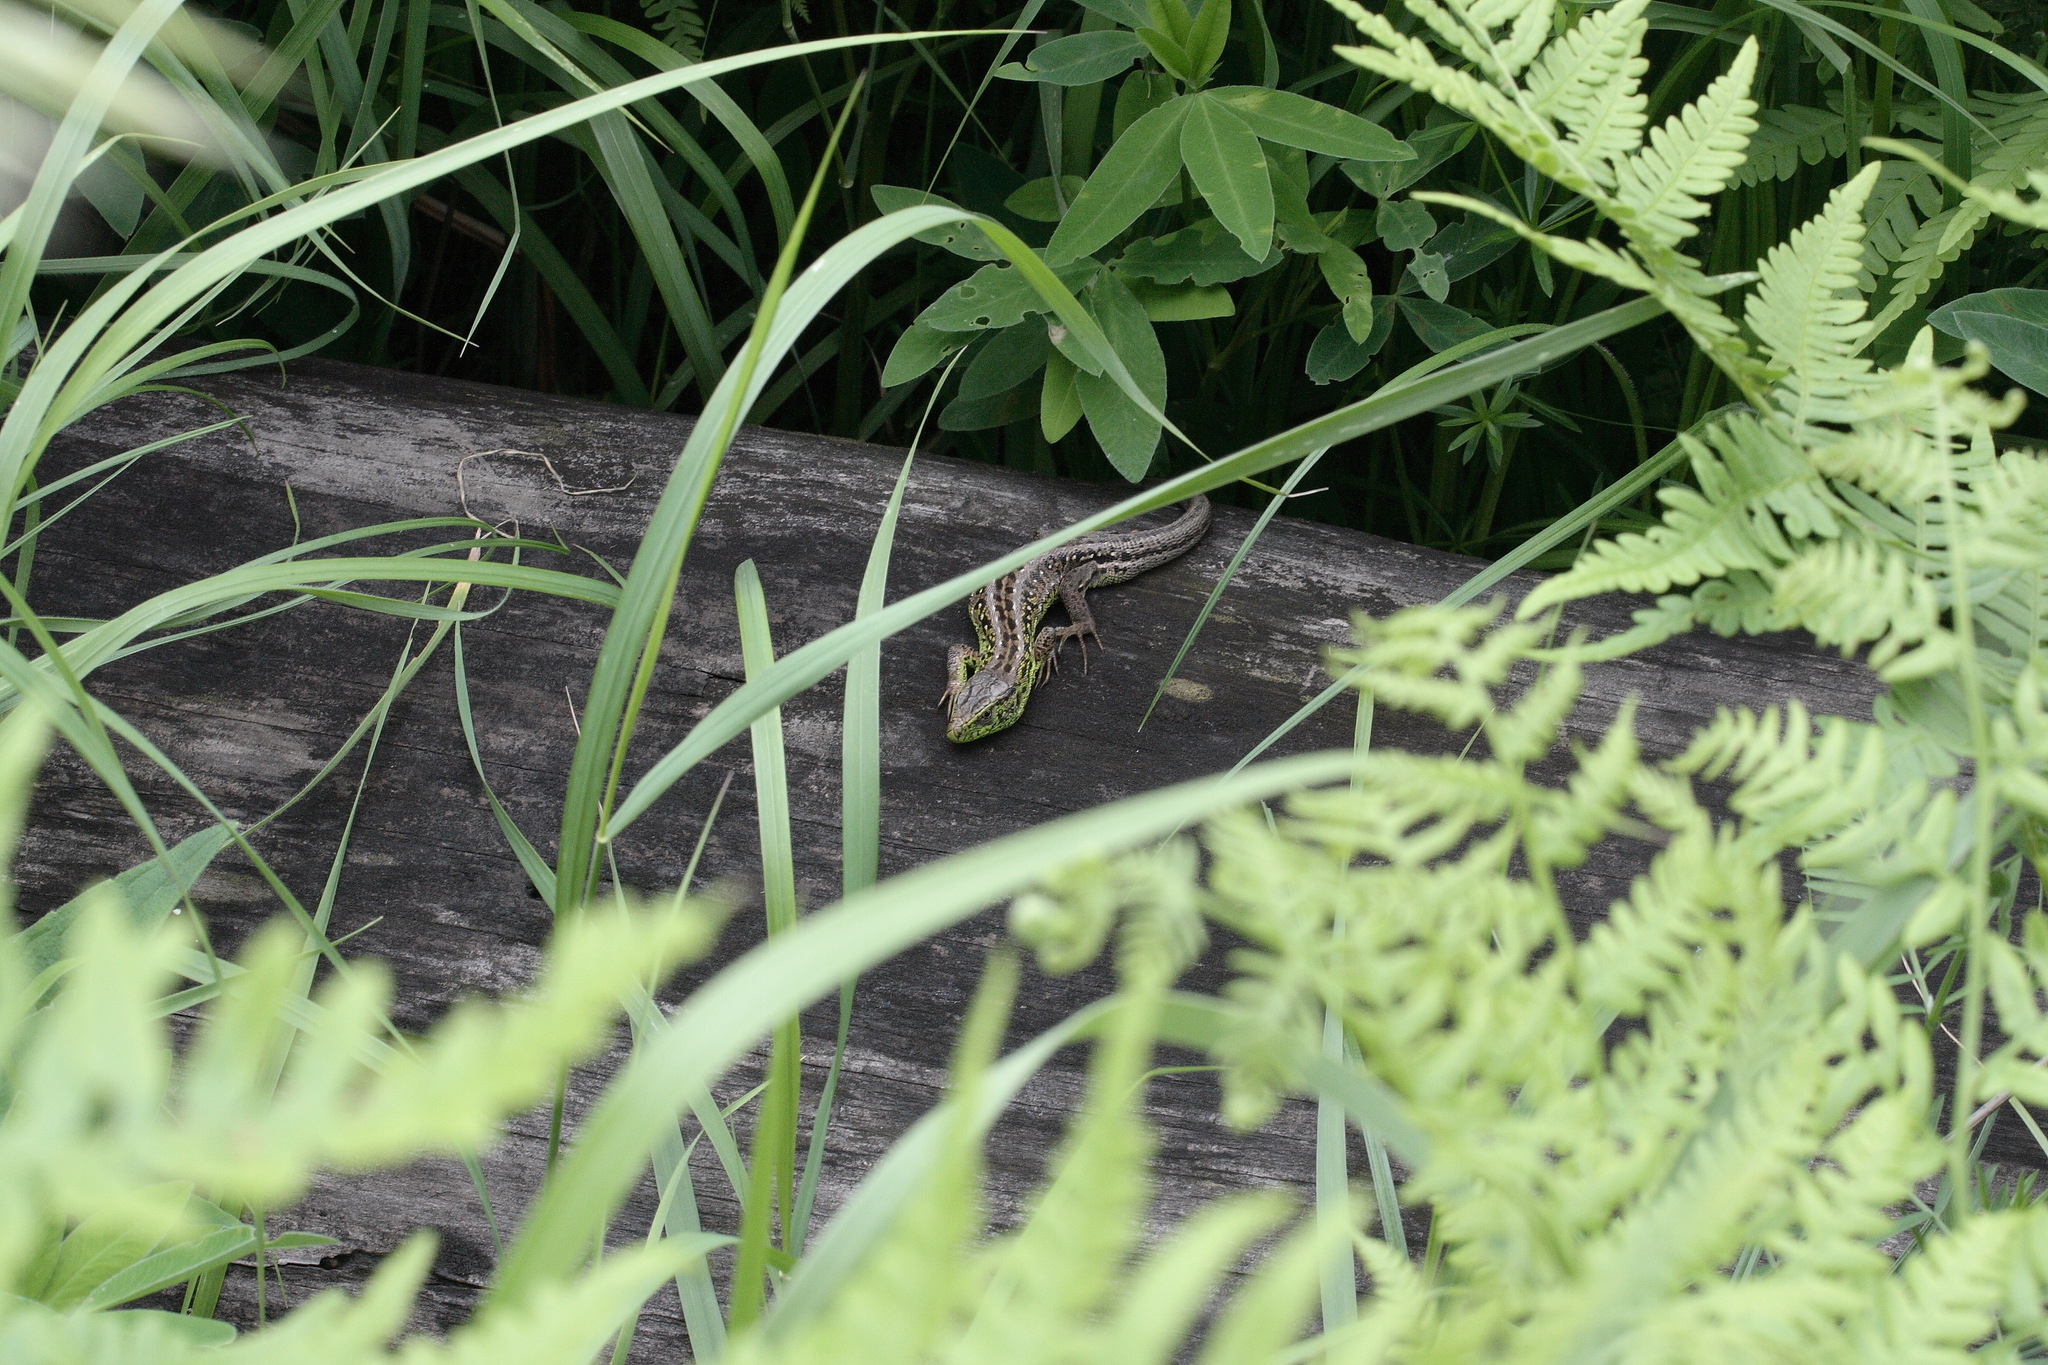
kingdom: Animalia
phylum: Chordata
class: Squamata
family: Lacertidae
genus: Lacerta
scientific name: Lacerta agilis
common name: Sand lizard
